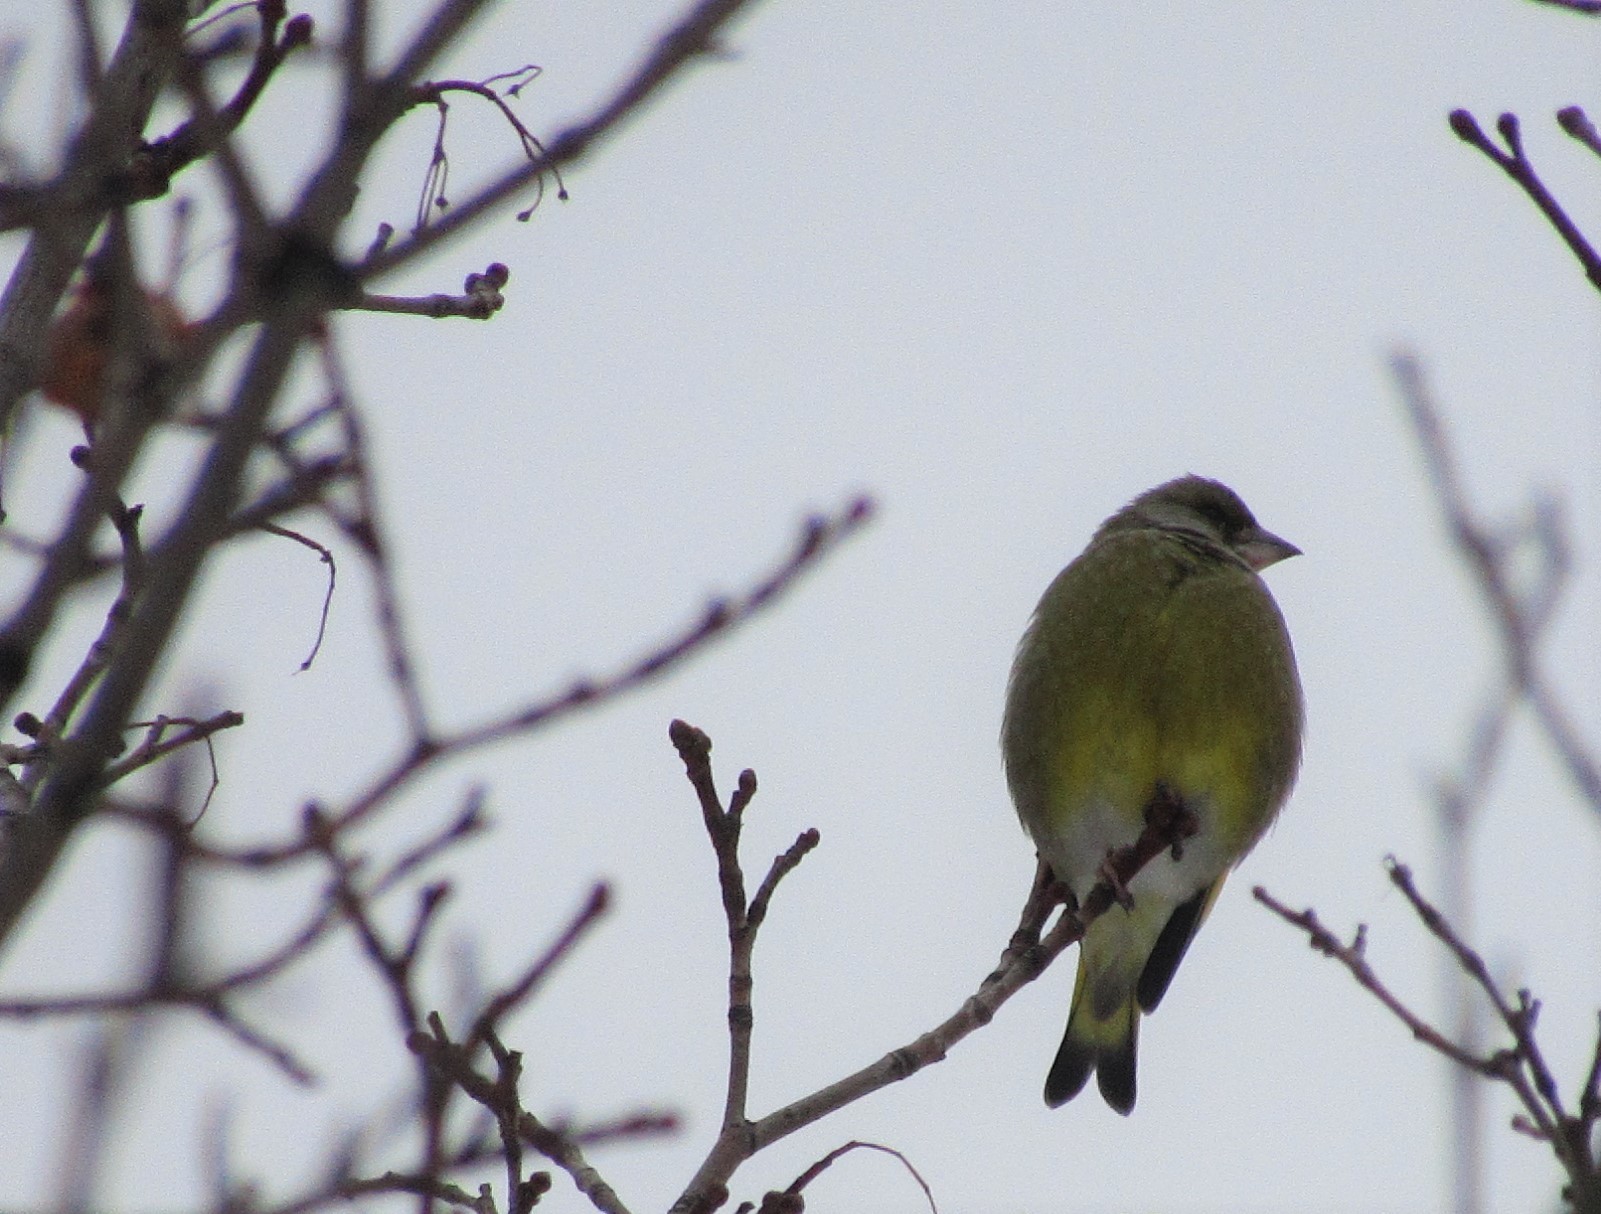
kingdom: Plantae
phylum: Tracheophyta
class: Liliopsida
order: Poales
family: Poaceae
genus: Chloris
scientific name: Chloris chloris
